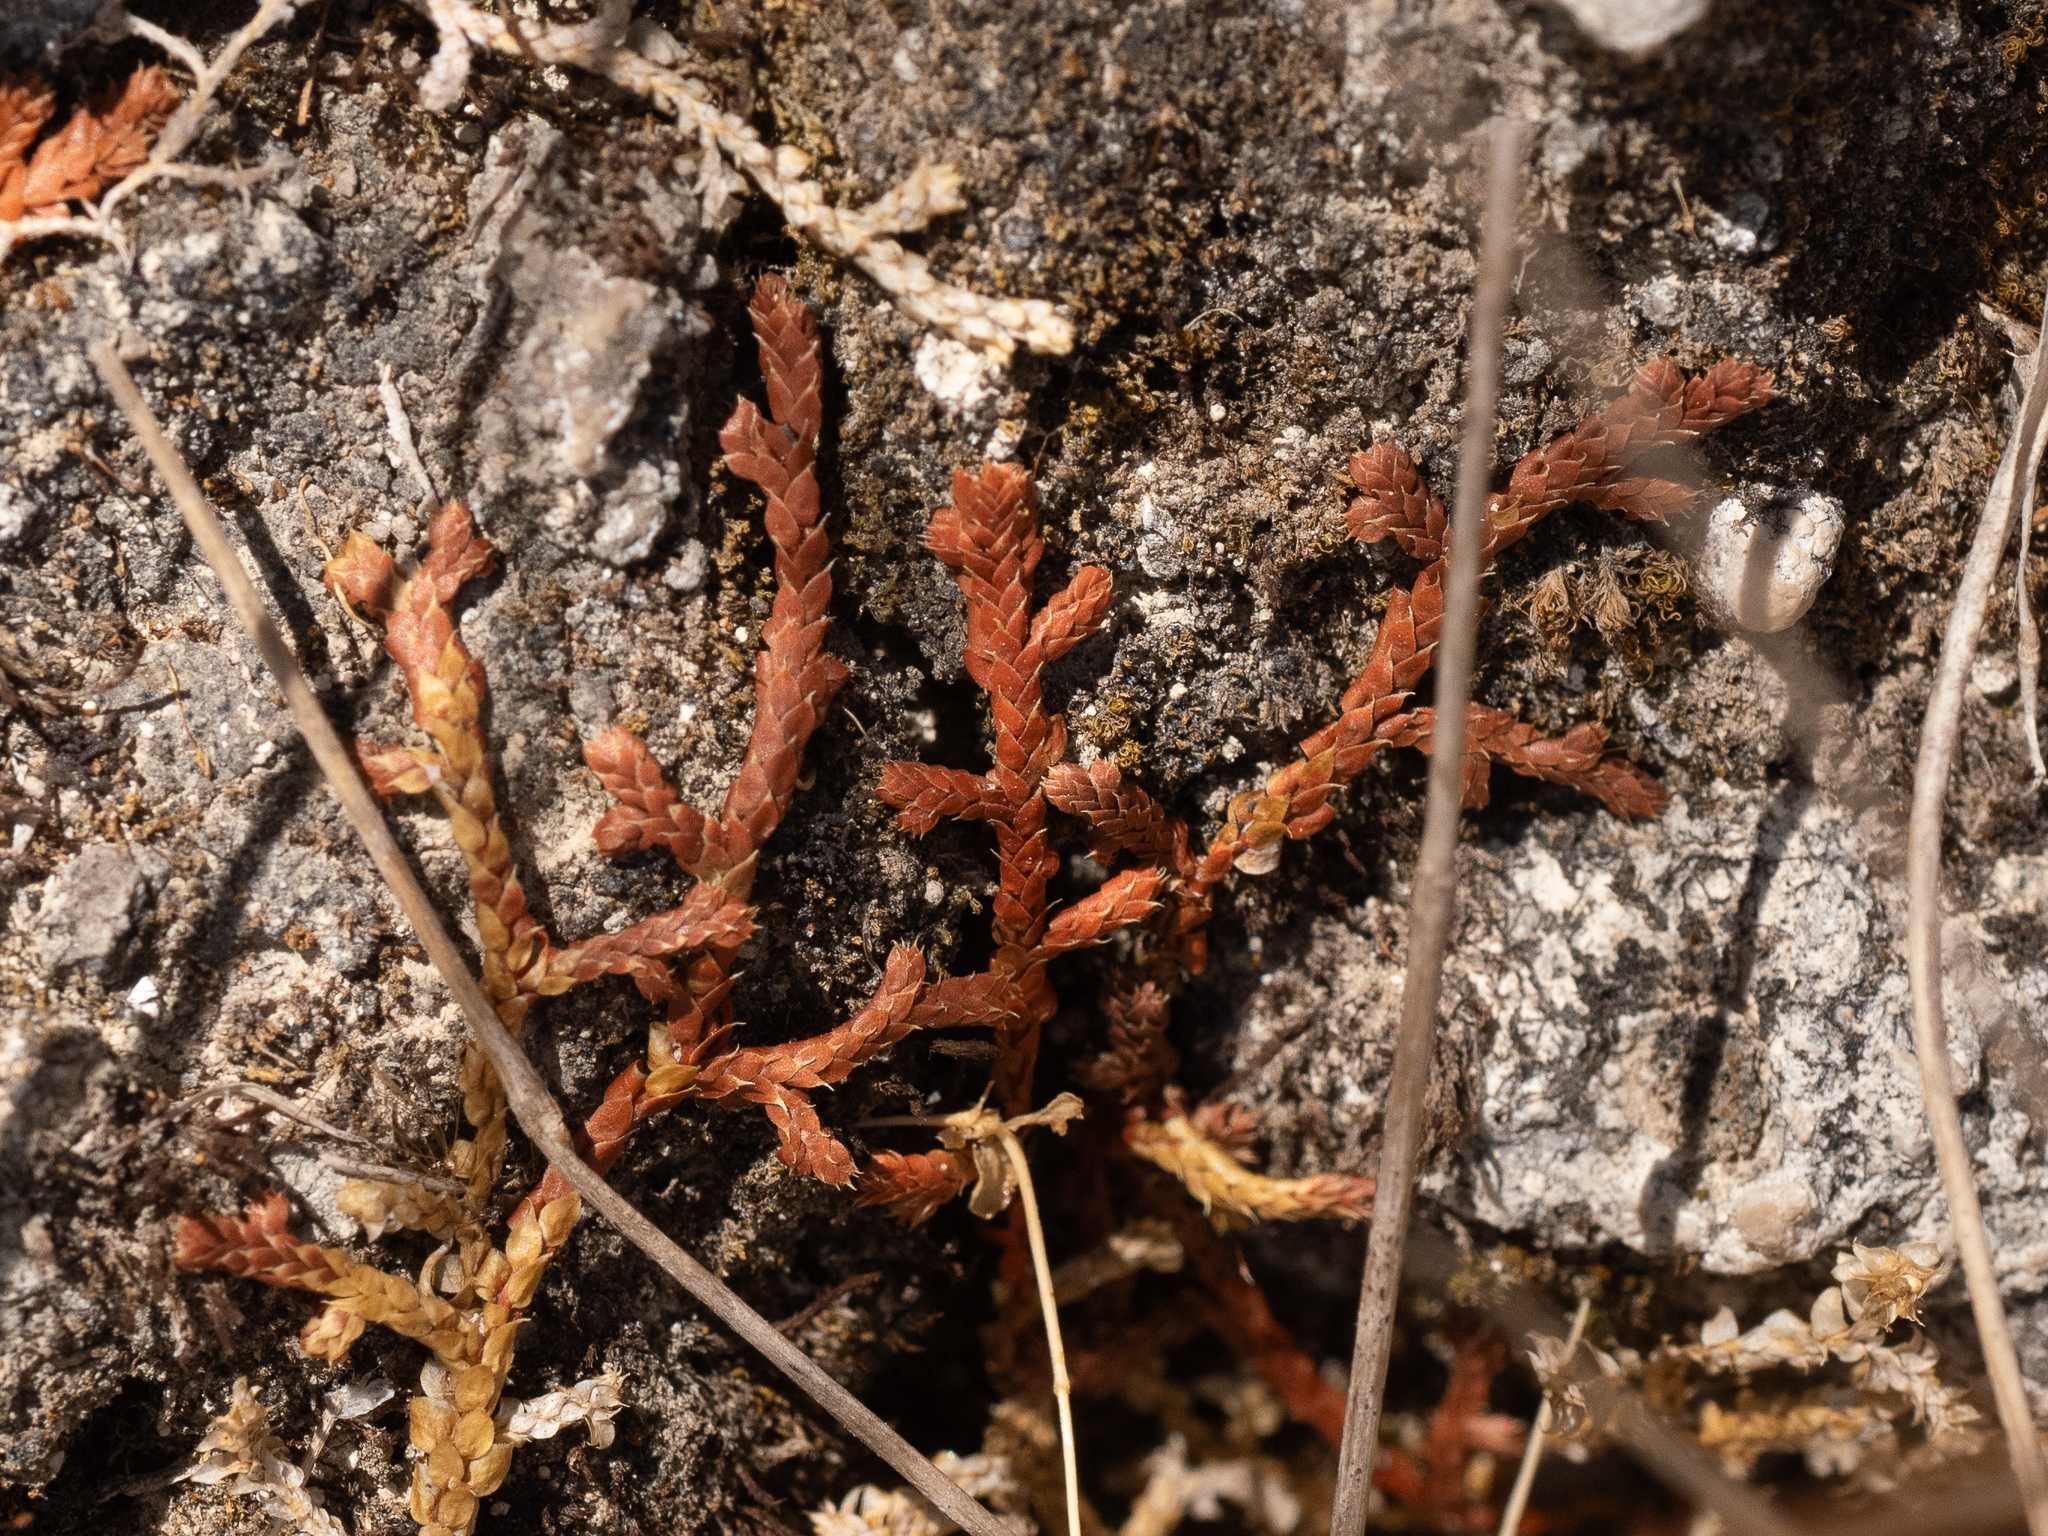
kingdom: Plantae
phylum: Tracheophyta
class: Lycopodiopsida
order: Selaginellales
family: Selaginellaceae
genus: Selaginella
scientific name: Selaginella denticulata
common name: Toothed-leaved clubmoss
